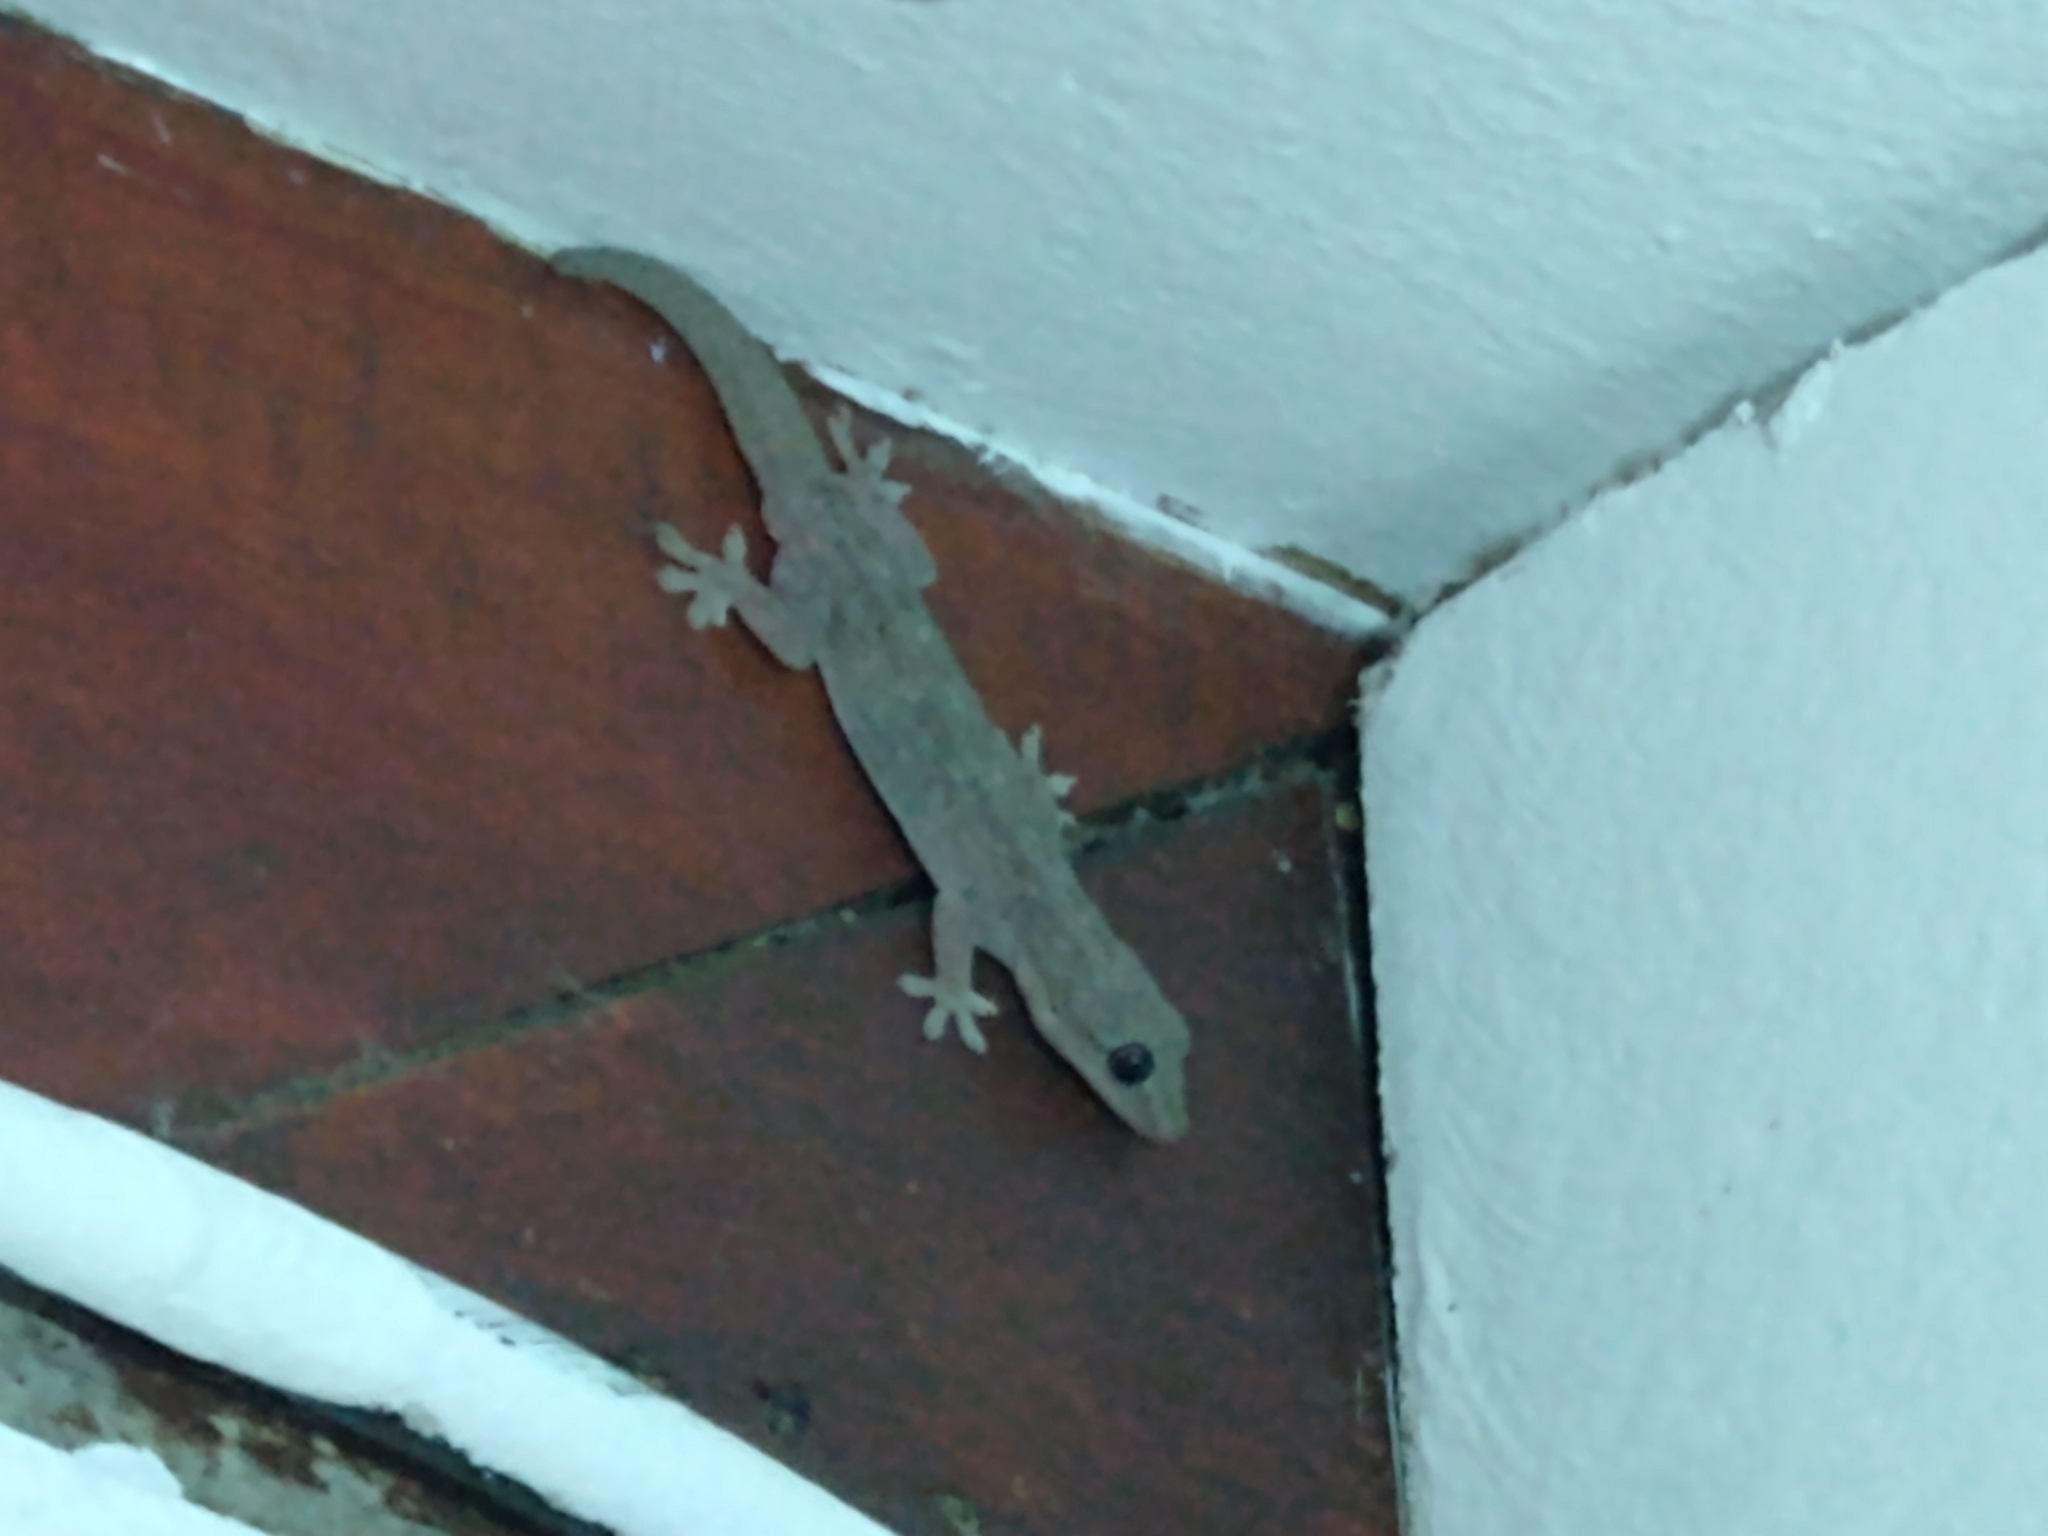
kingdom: Animalia
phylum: Chordata
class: Squamata
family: Gekkonidae
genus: Hemidactylus
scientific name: Hemidactylus frenatus
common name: Common house gecko
